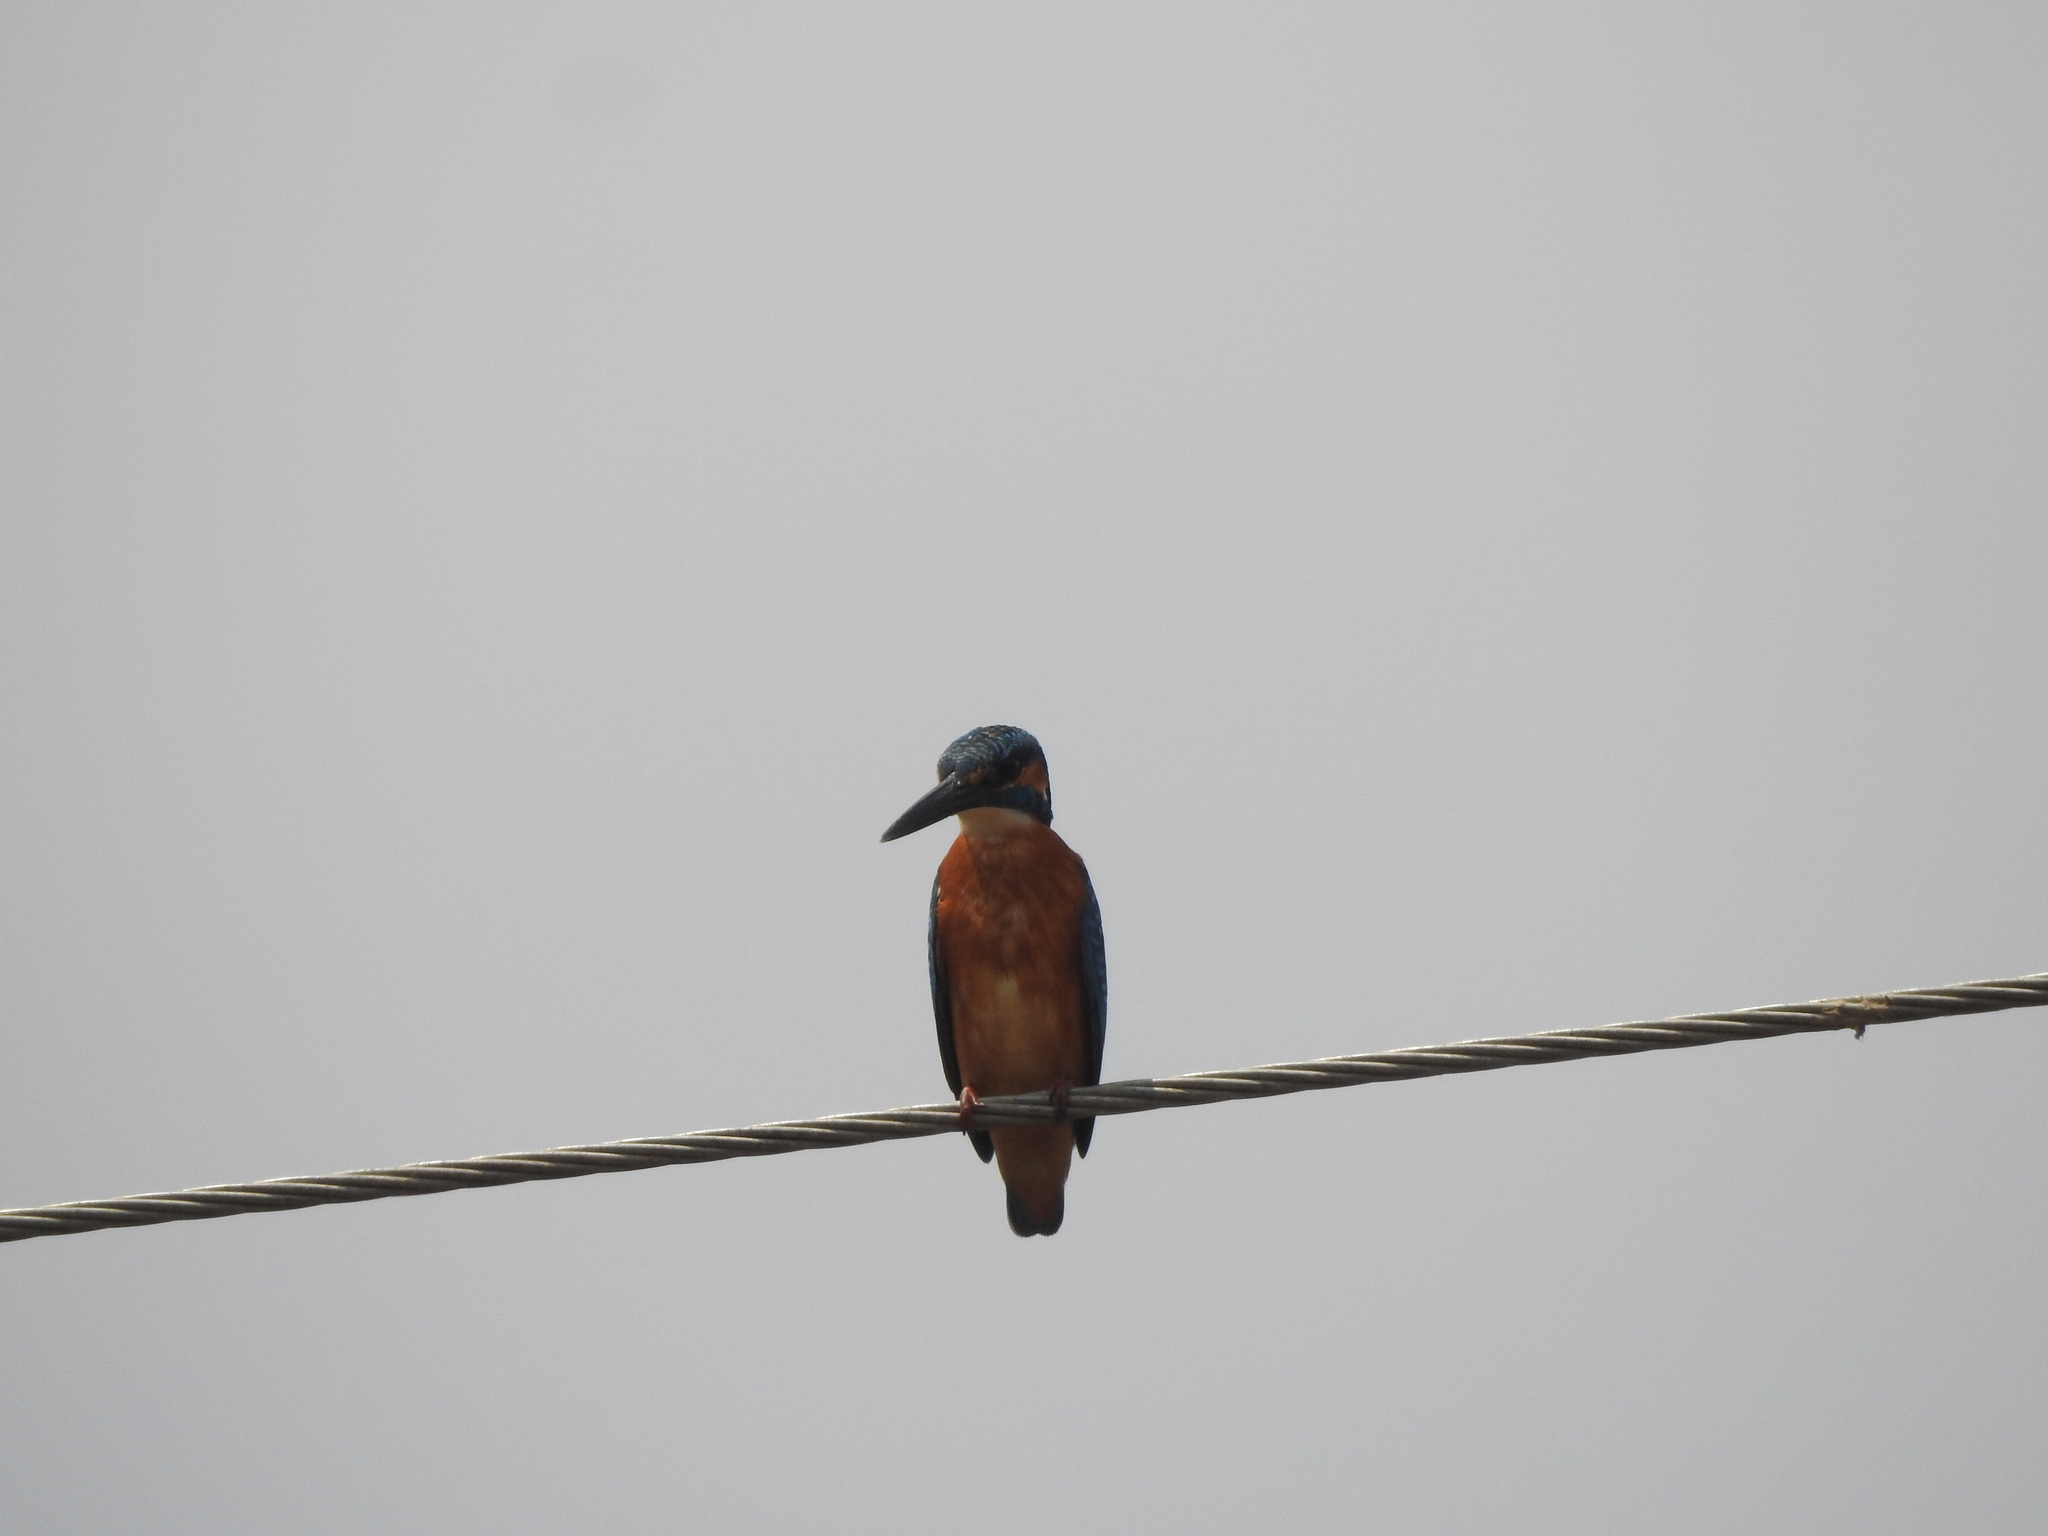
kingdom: Animalia
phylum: Chordata
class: Aves
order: Coraciiformes
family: Alcedinidae
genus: Alcedo
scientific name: Alcedo atthis
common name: Common kingfisher
